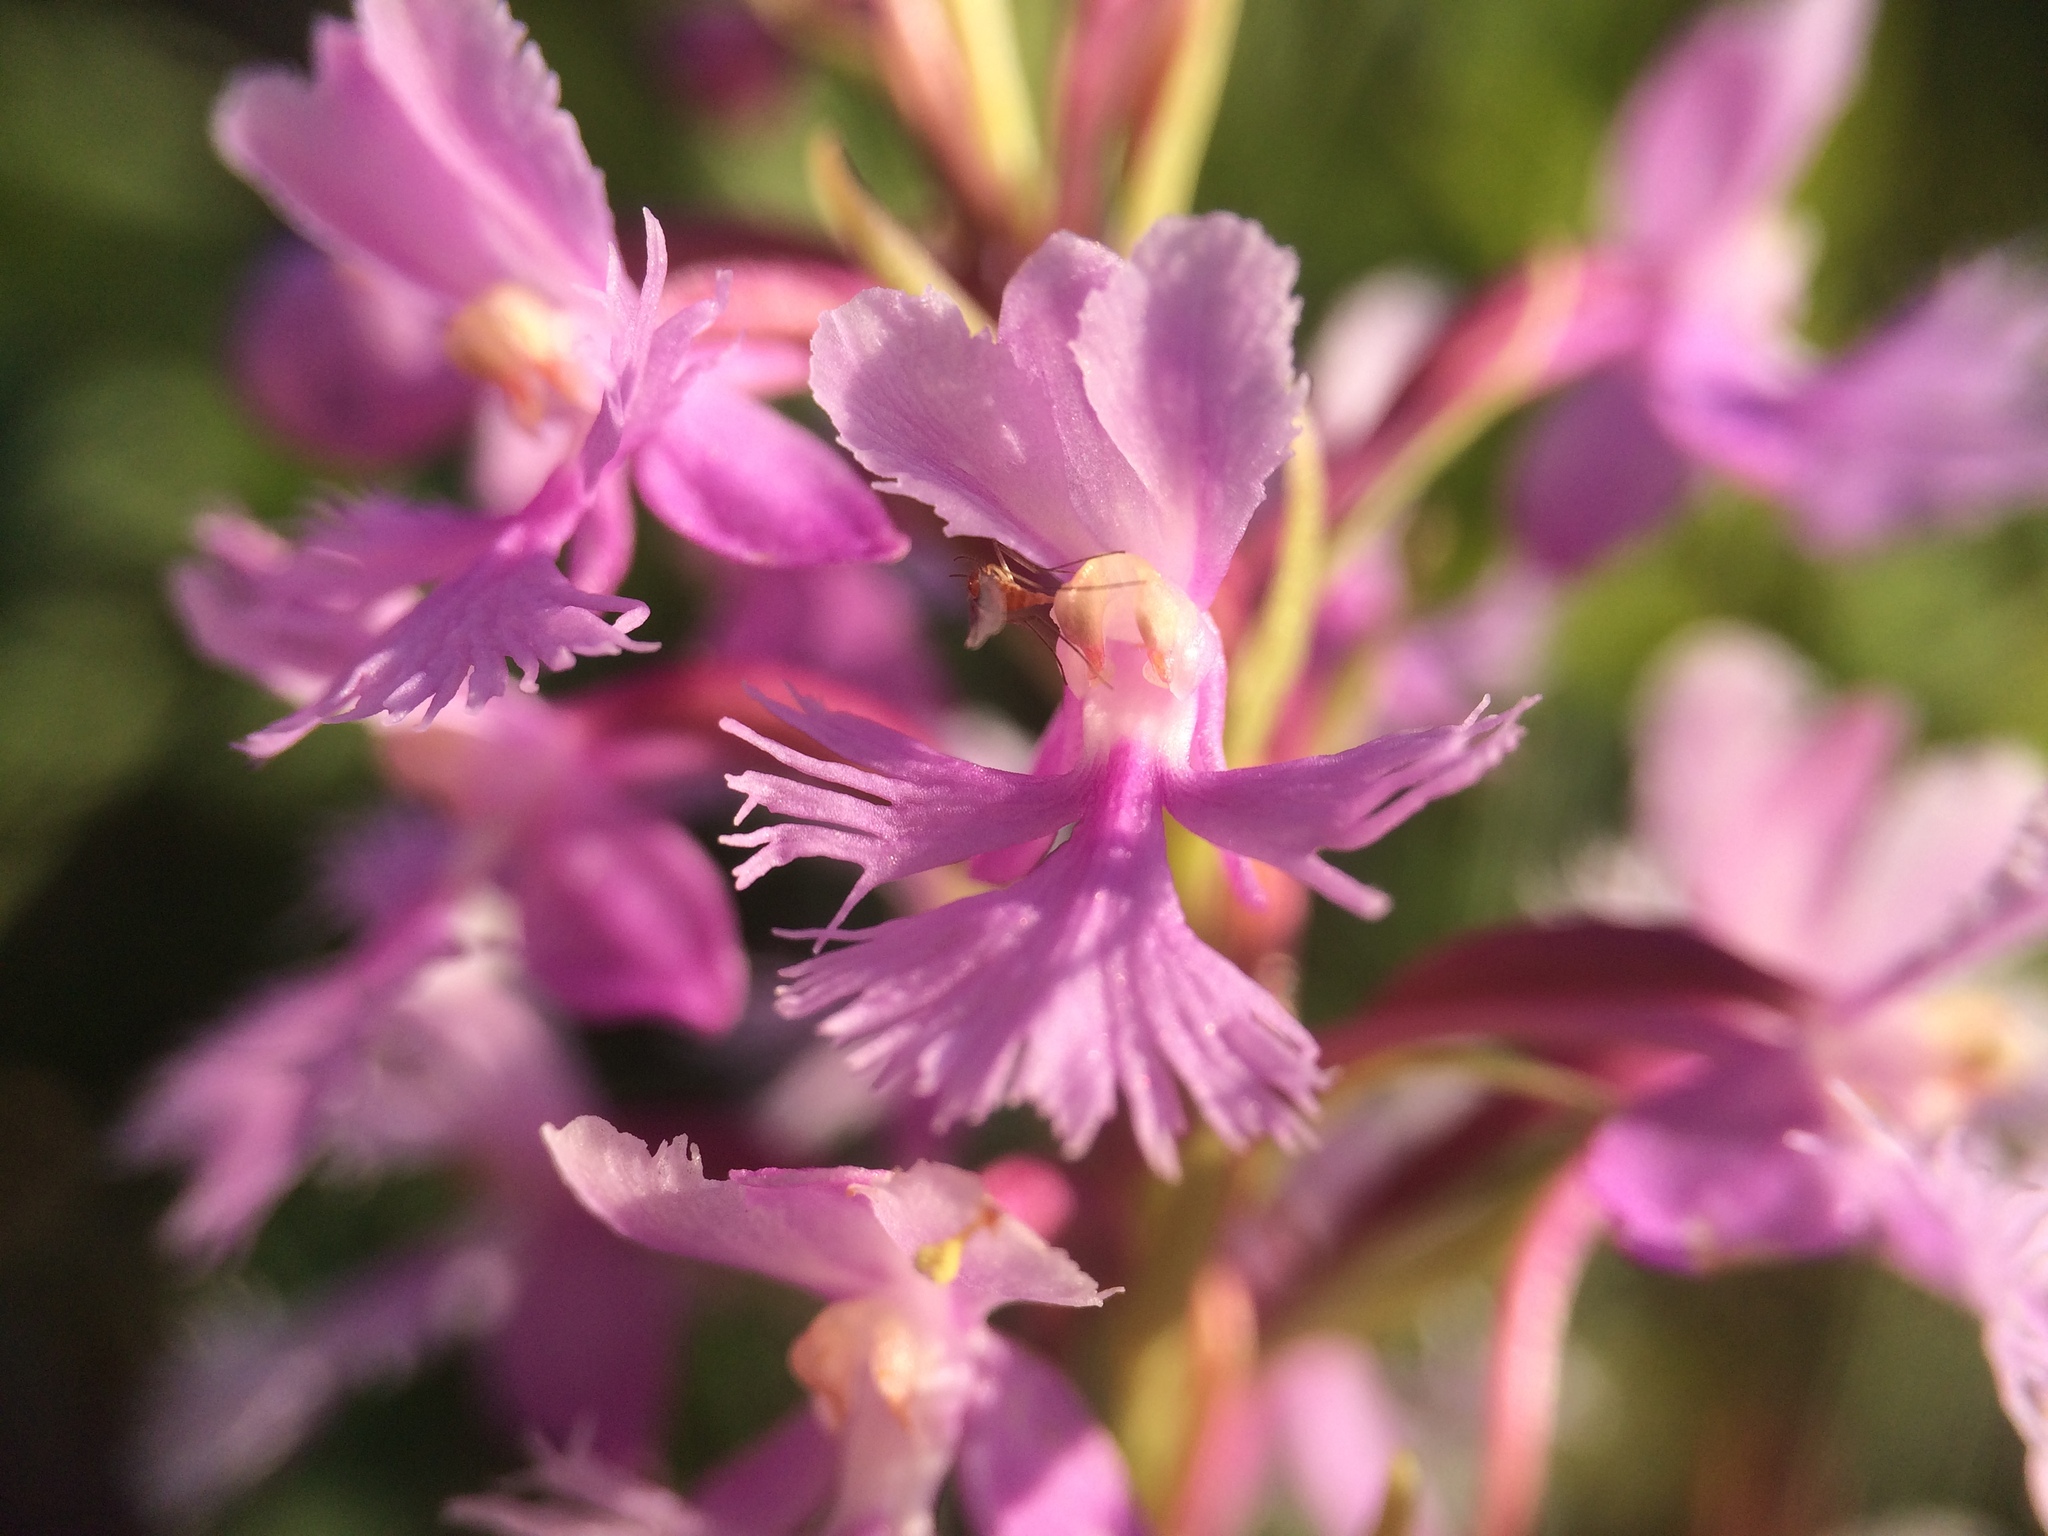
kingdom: Plantae
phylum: Tracheophyta
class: Liliopsida
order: Asparagales
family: Orchidaceae
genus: Platanthera
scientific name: Platanthera psycodes
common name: Lesser purple fringed orchid
